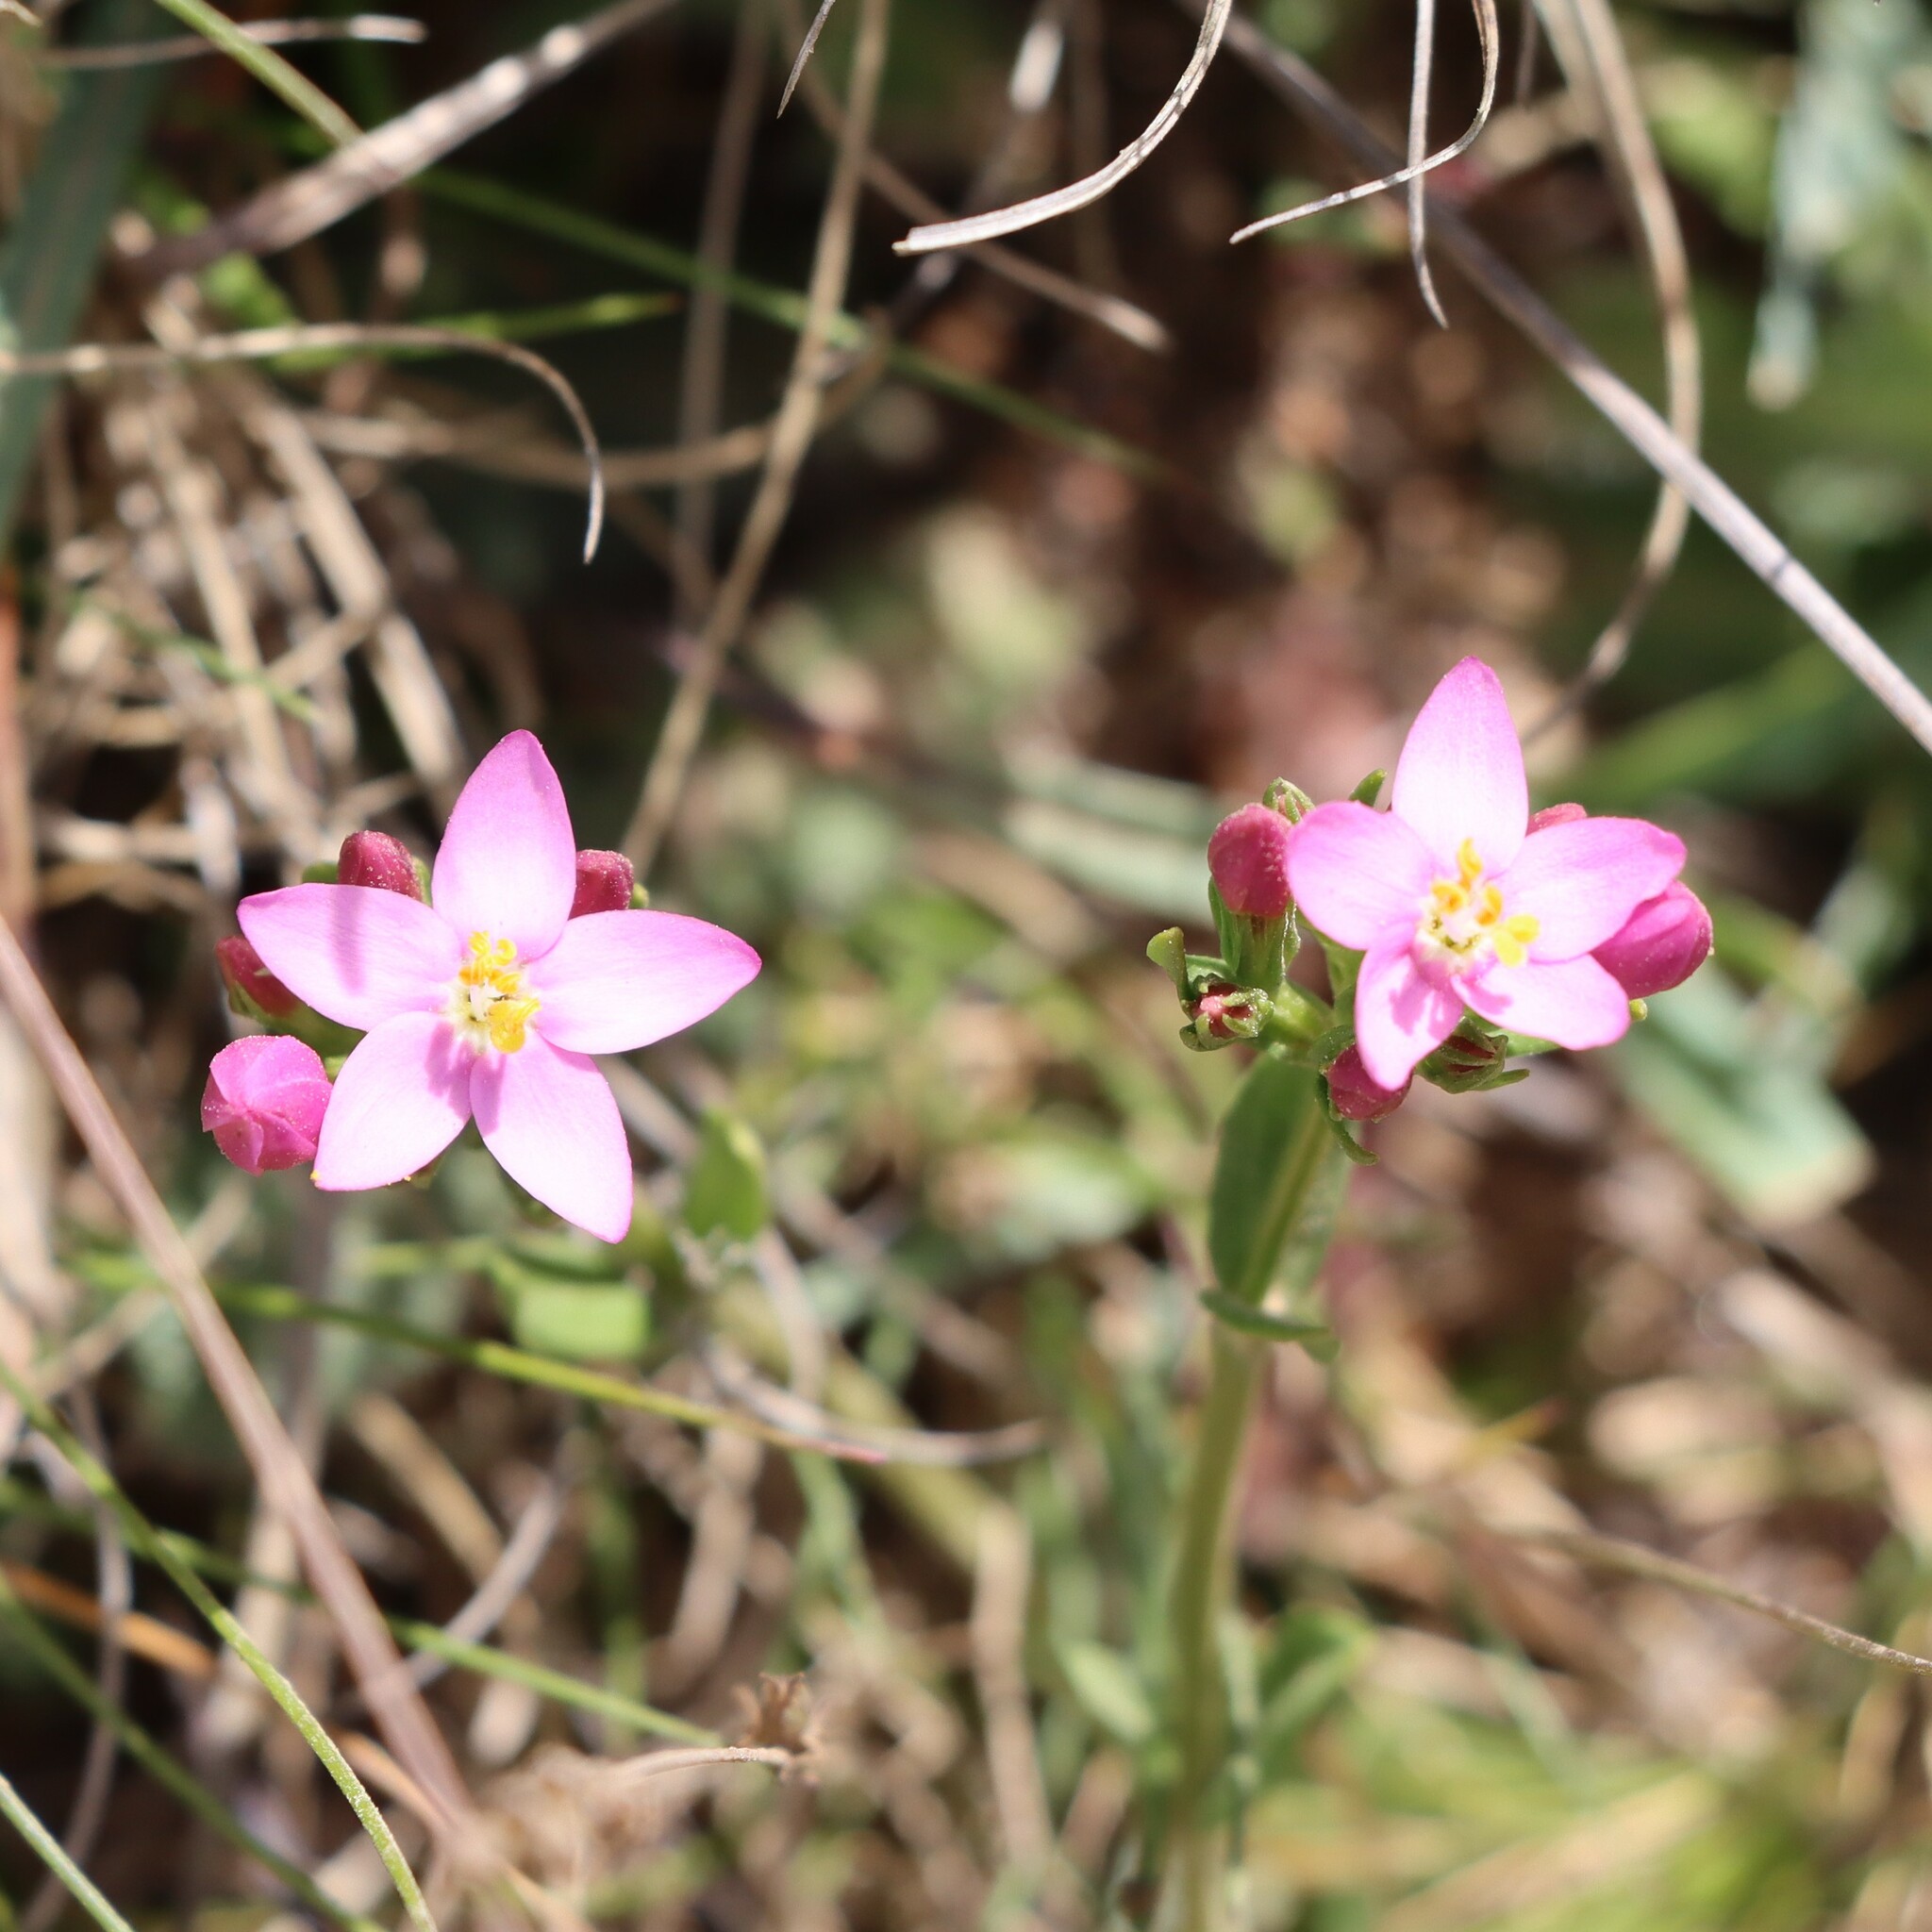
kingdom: Plantae
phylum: Tracheophyta
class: Magnoliopsida
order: Gentianales
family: Gentianaceae
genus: Centaurium
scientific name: Centaurium erythraea
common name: Common centaury
